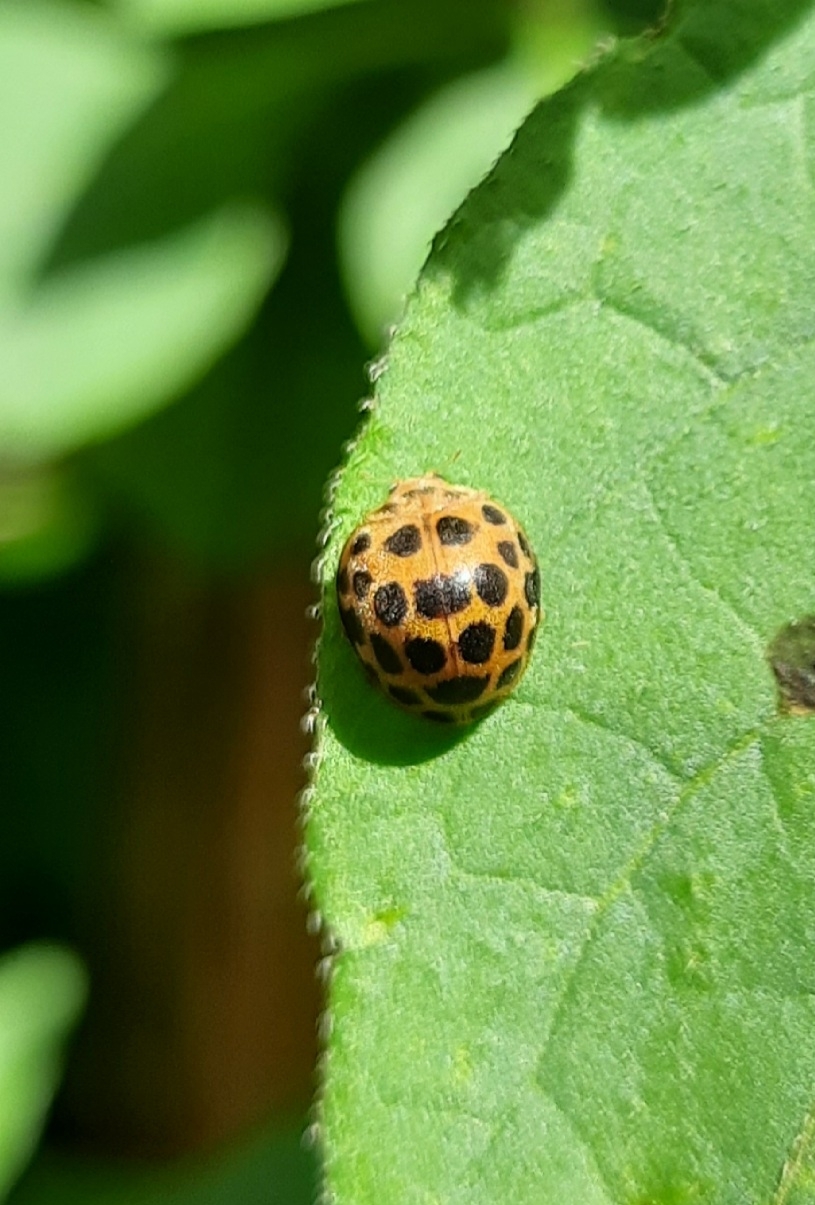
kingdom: Animalia
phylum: Arthropoda
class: Insecta
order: Coleoptera
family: Coccinellidae
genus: Henosepilachna
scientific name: Henosepilachna vigintioctopunctata
